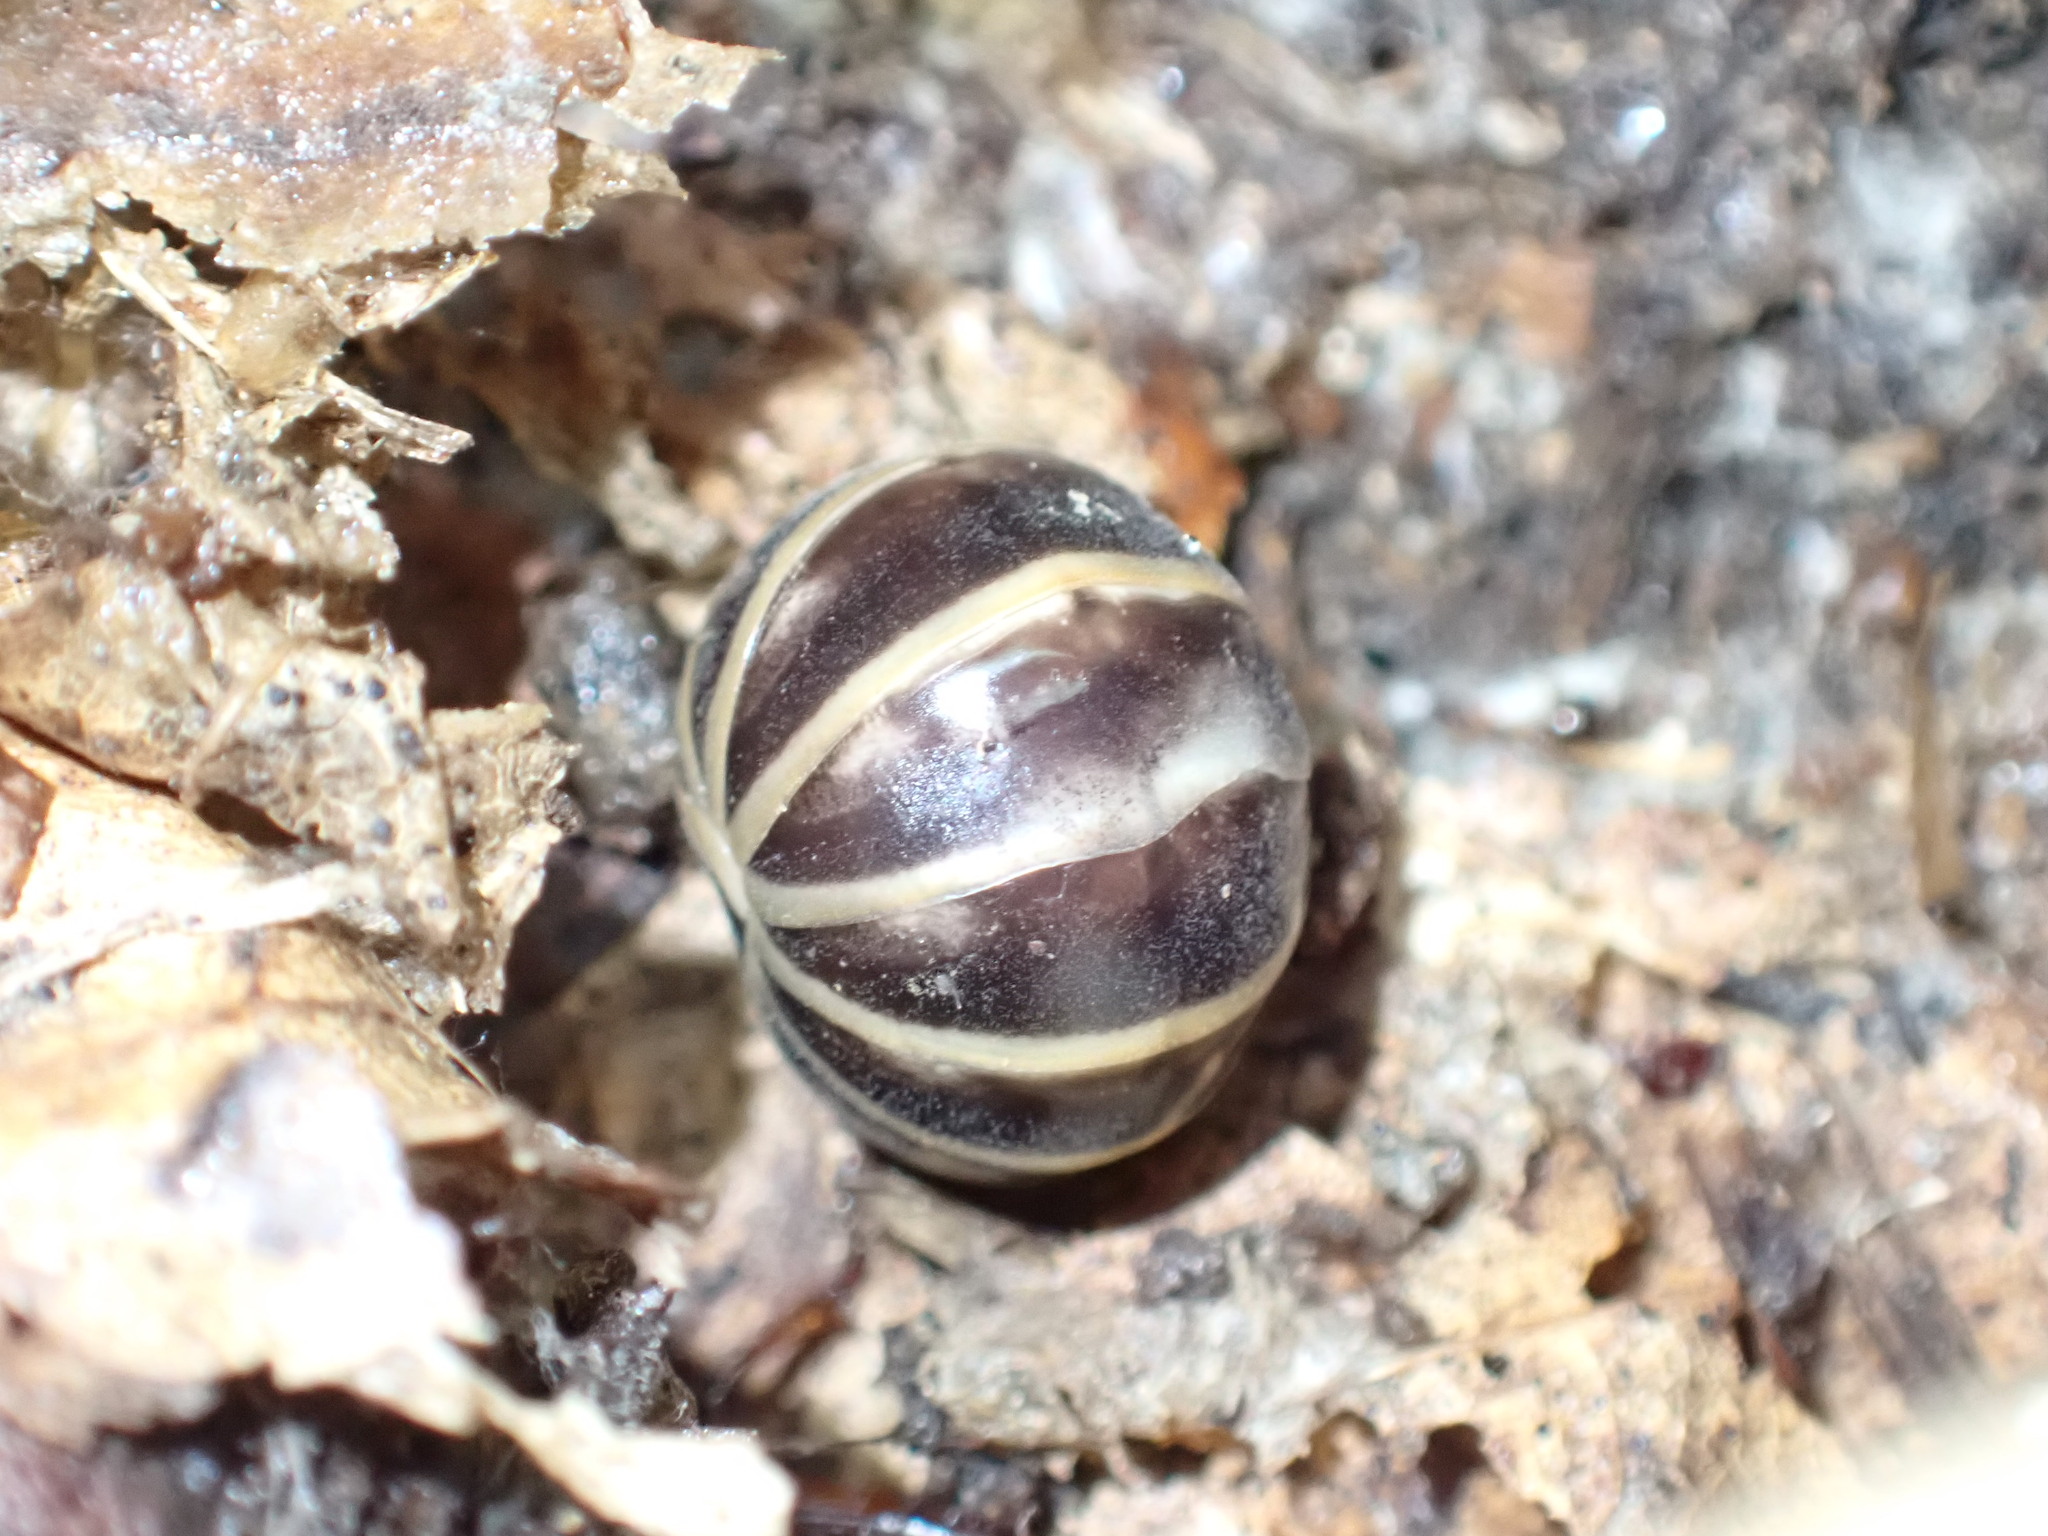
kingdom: Animalia
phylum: Arthropoda
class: Diplopoda
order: Glomerida
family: Glomeridae
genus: Glomeris
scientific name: Glomeris marginata
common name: Bordered pill millipede
